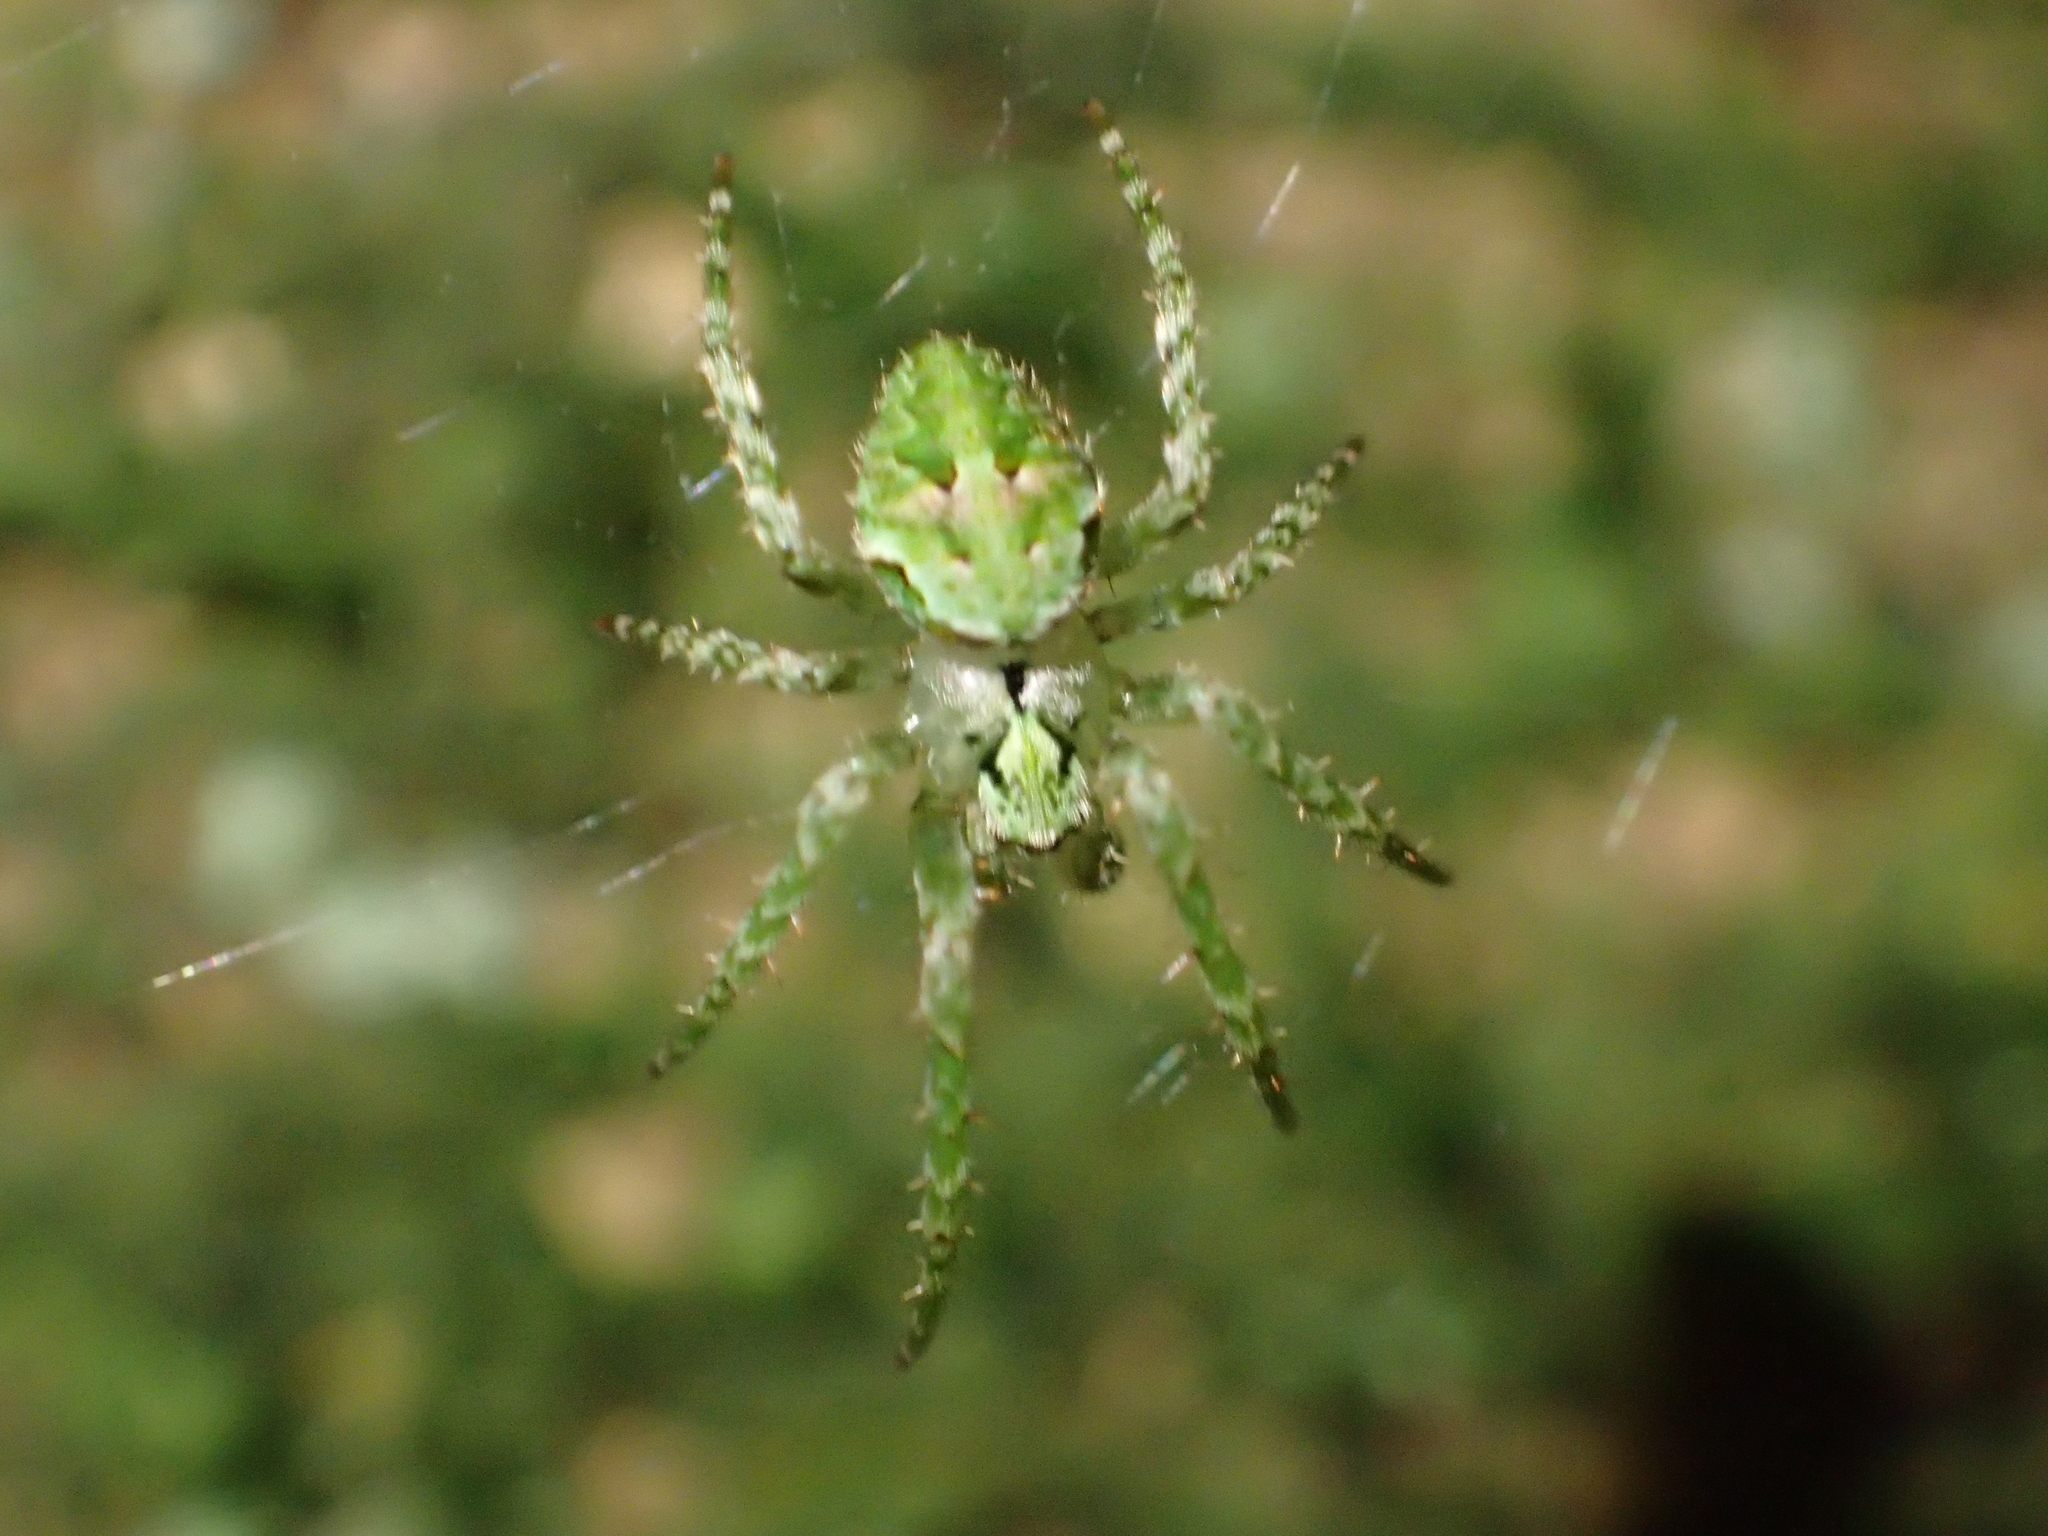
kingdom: Animalia
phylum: Arthropoda
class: Arachnida
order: Araneae
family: Araneidae
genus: Cryptaranea
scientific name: Cryptaranea atrihastula
